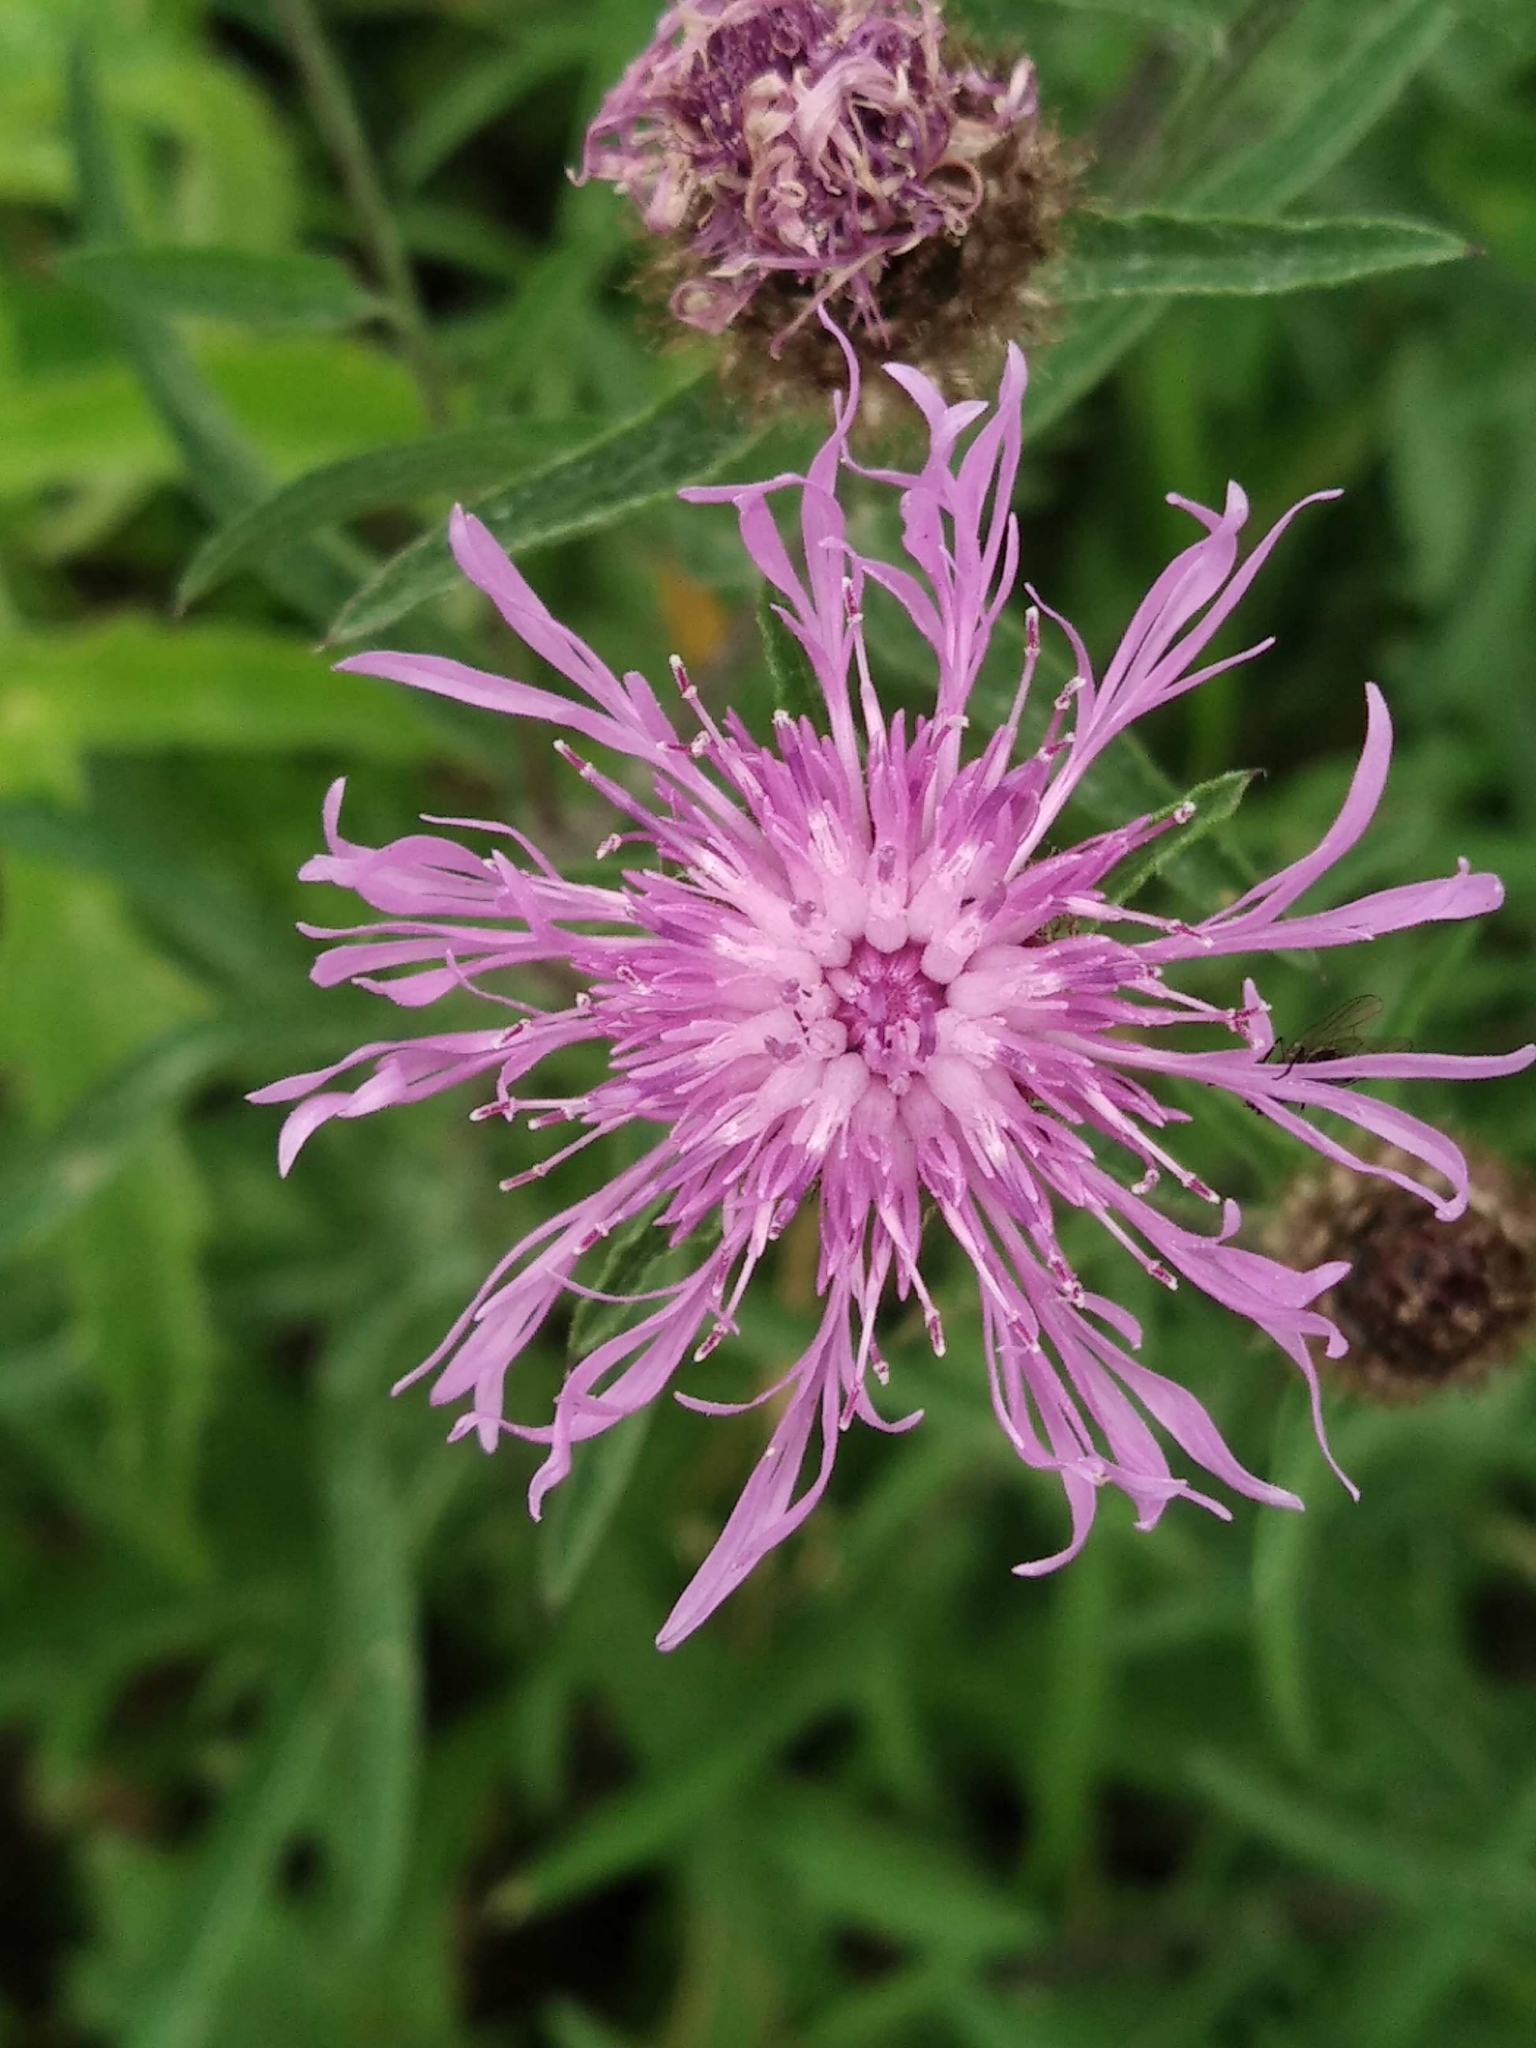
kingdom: Plantae
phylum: Tracheophyta
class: Magnoliopsida
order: Asterales
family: Asteraceae
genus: Centaurea
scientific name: Centaurea jacea
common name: Brown knapweed
